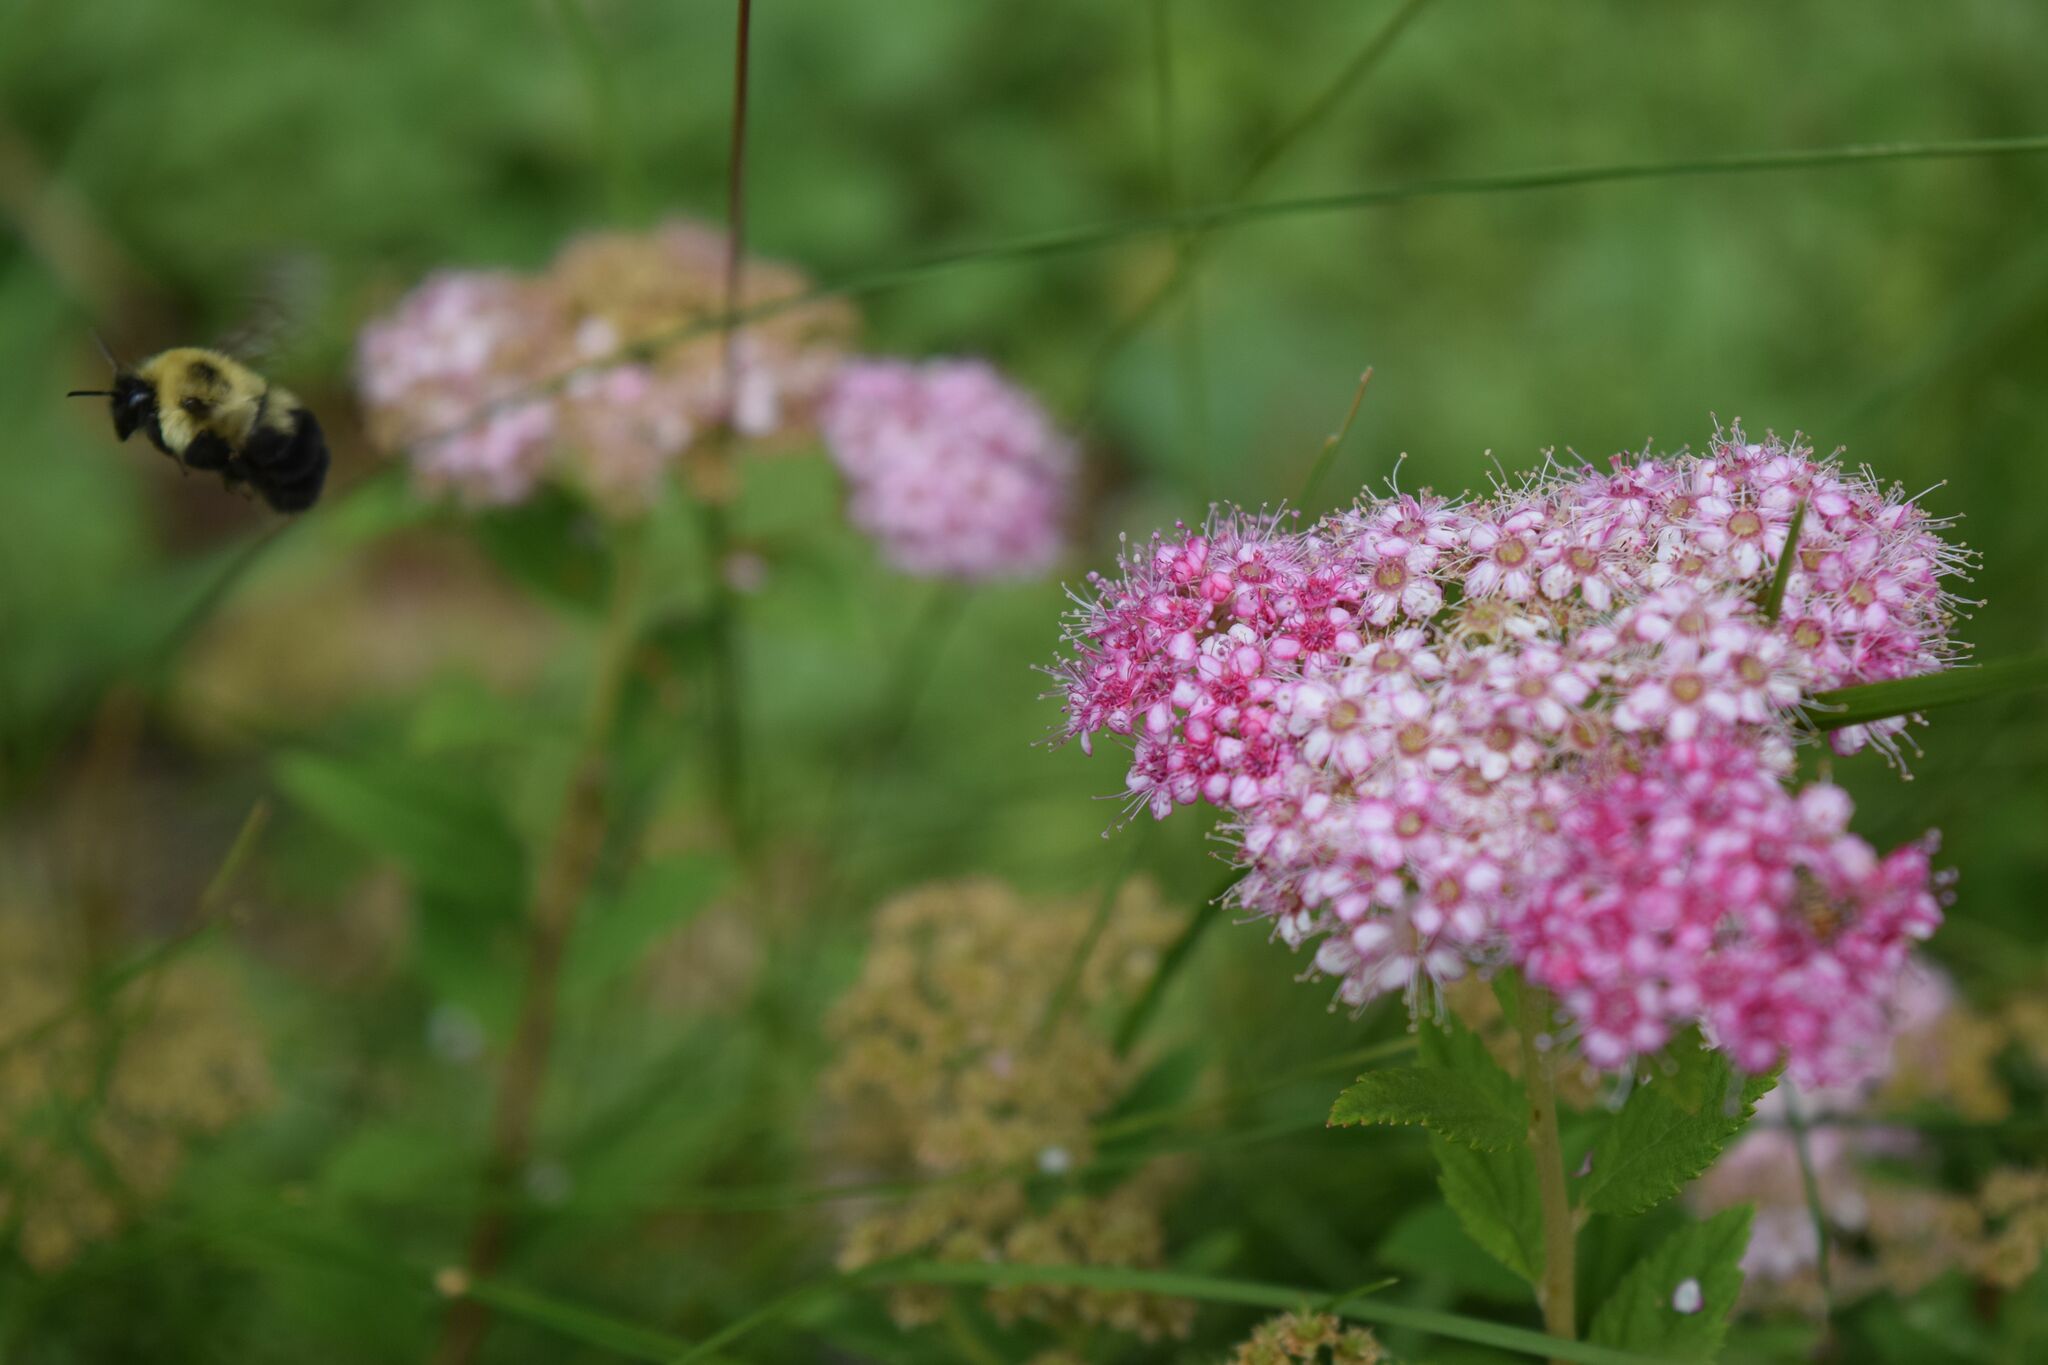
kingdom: Animalia
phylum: Arthropoda
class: Insecta
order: Hymenoptera
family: Apidae
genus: Bombus
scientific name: Bombus bimaculatus
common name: Two-spotted bumble bee
